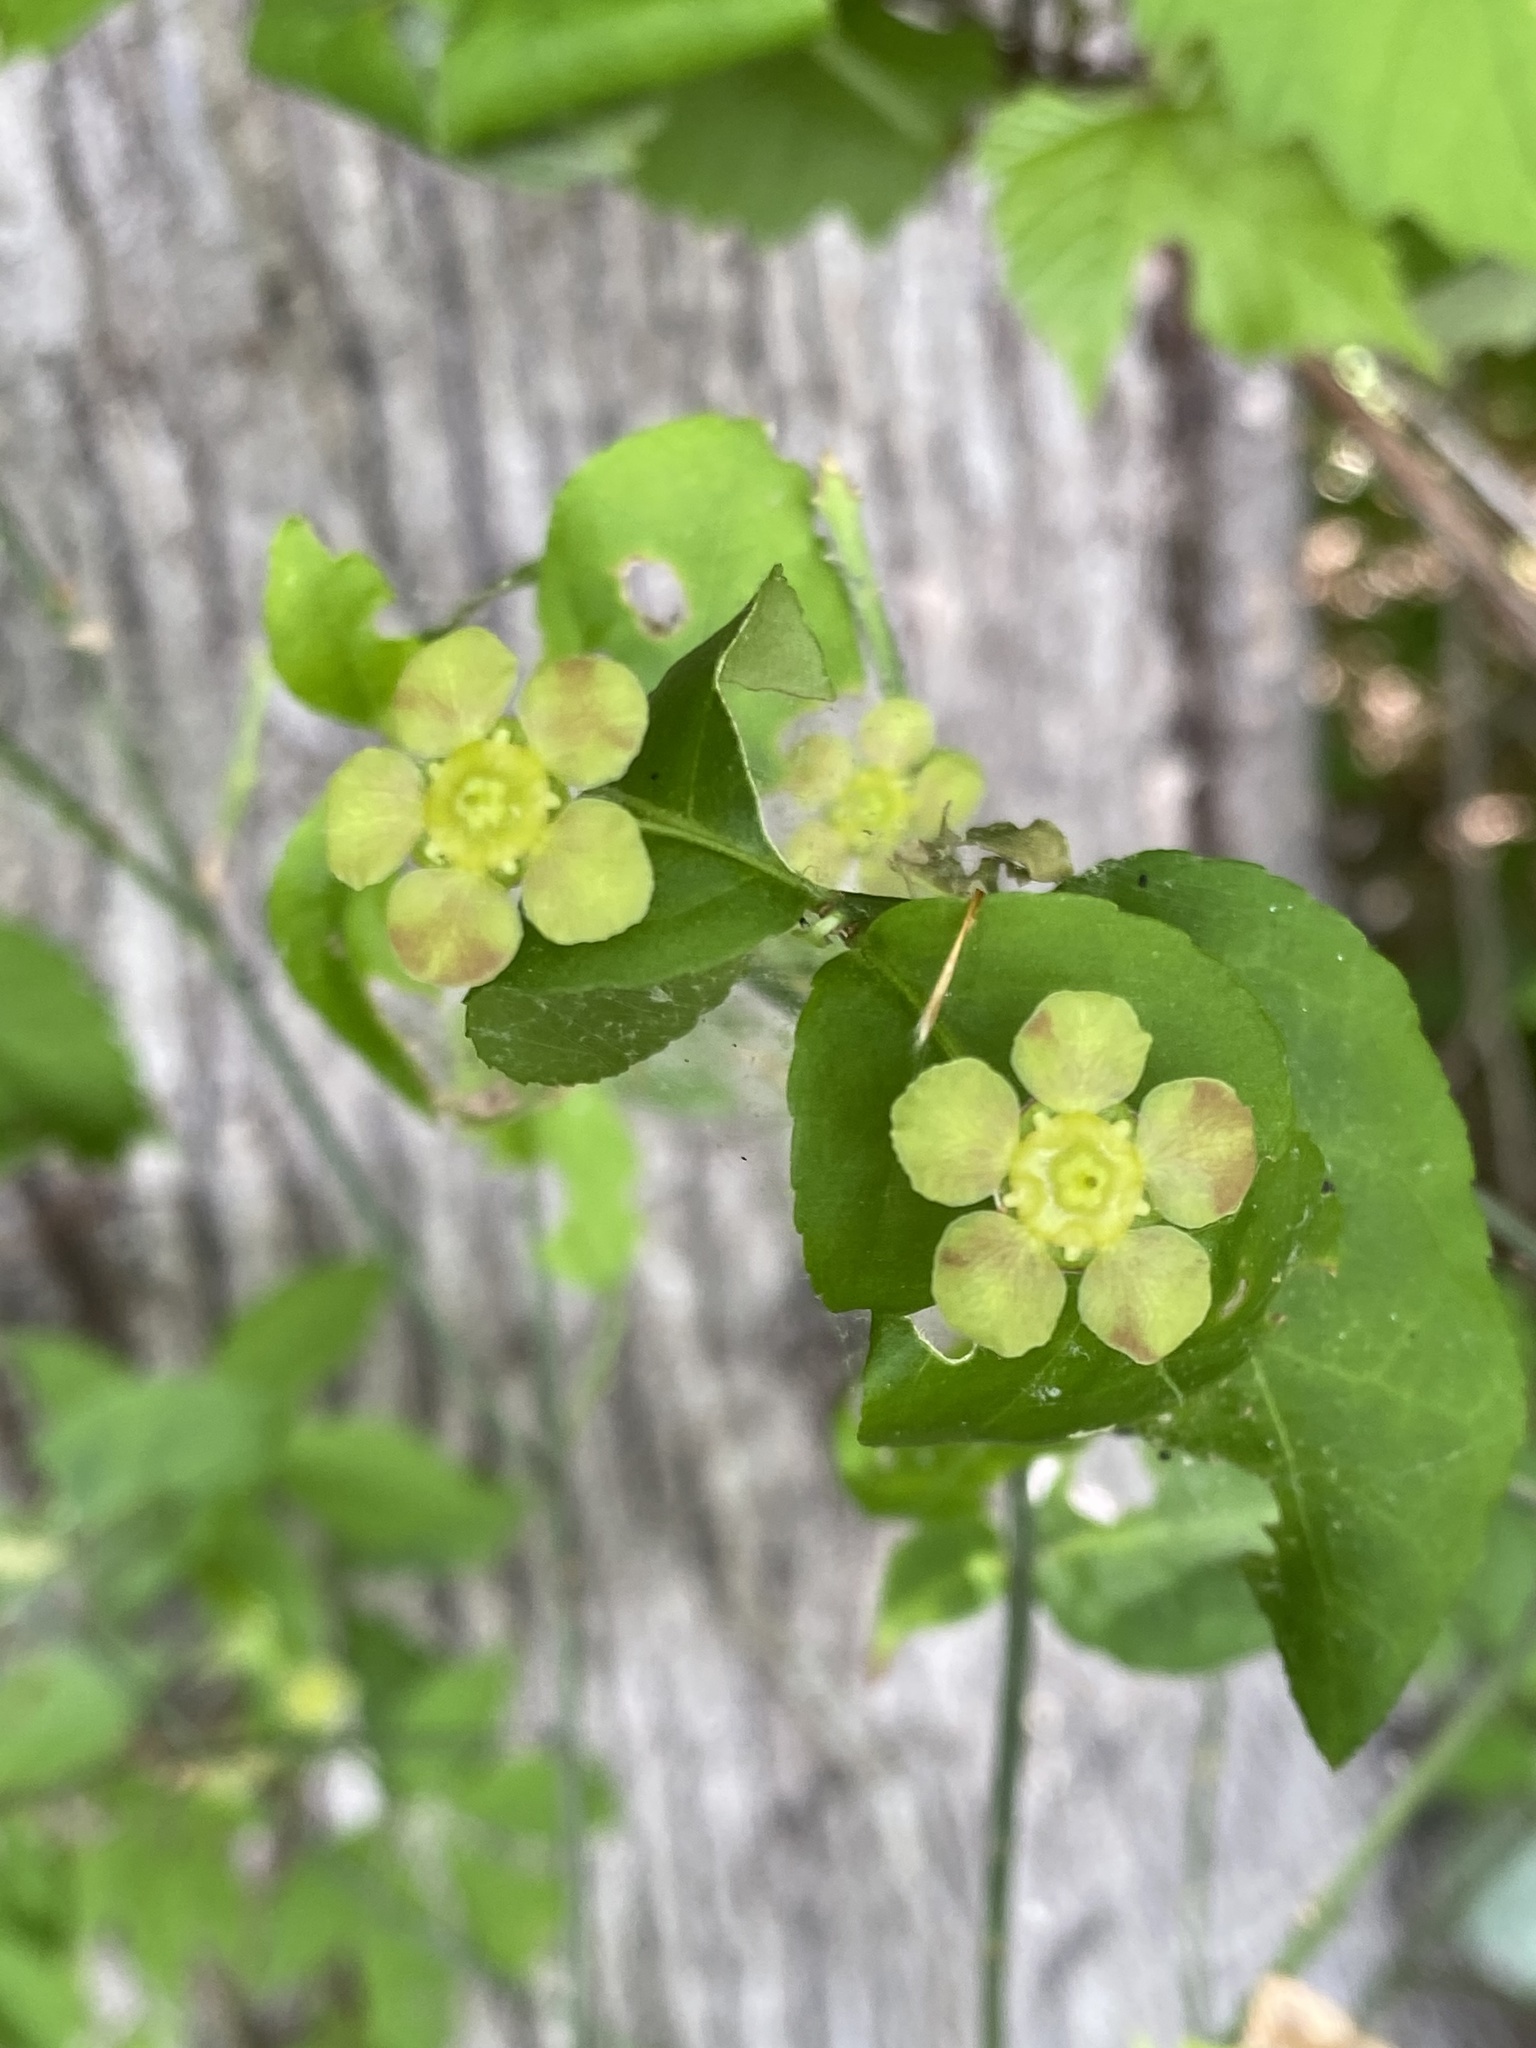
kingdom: Plantae
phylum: Tracheophyta
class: Magnoliopsida
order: Celastrales
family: Celastraceae
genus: Euonymus
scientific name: Euonymus americanus
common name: Bursting-heart
